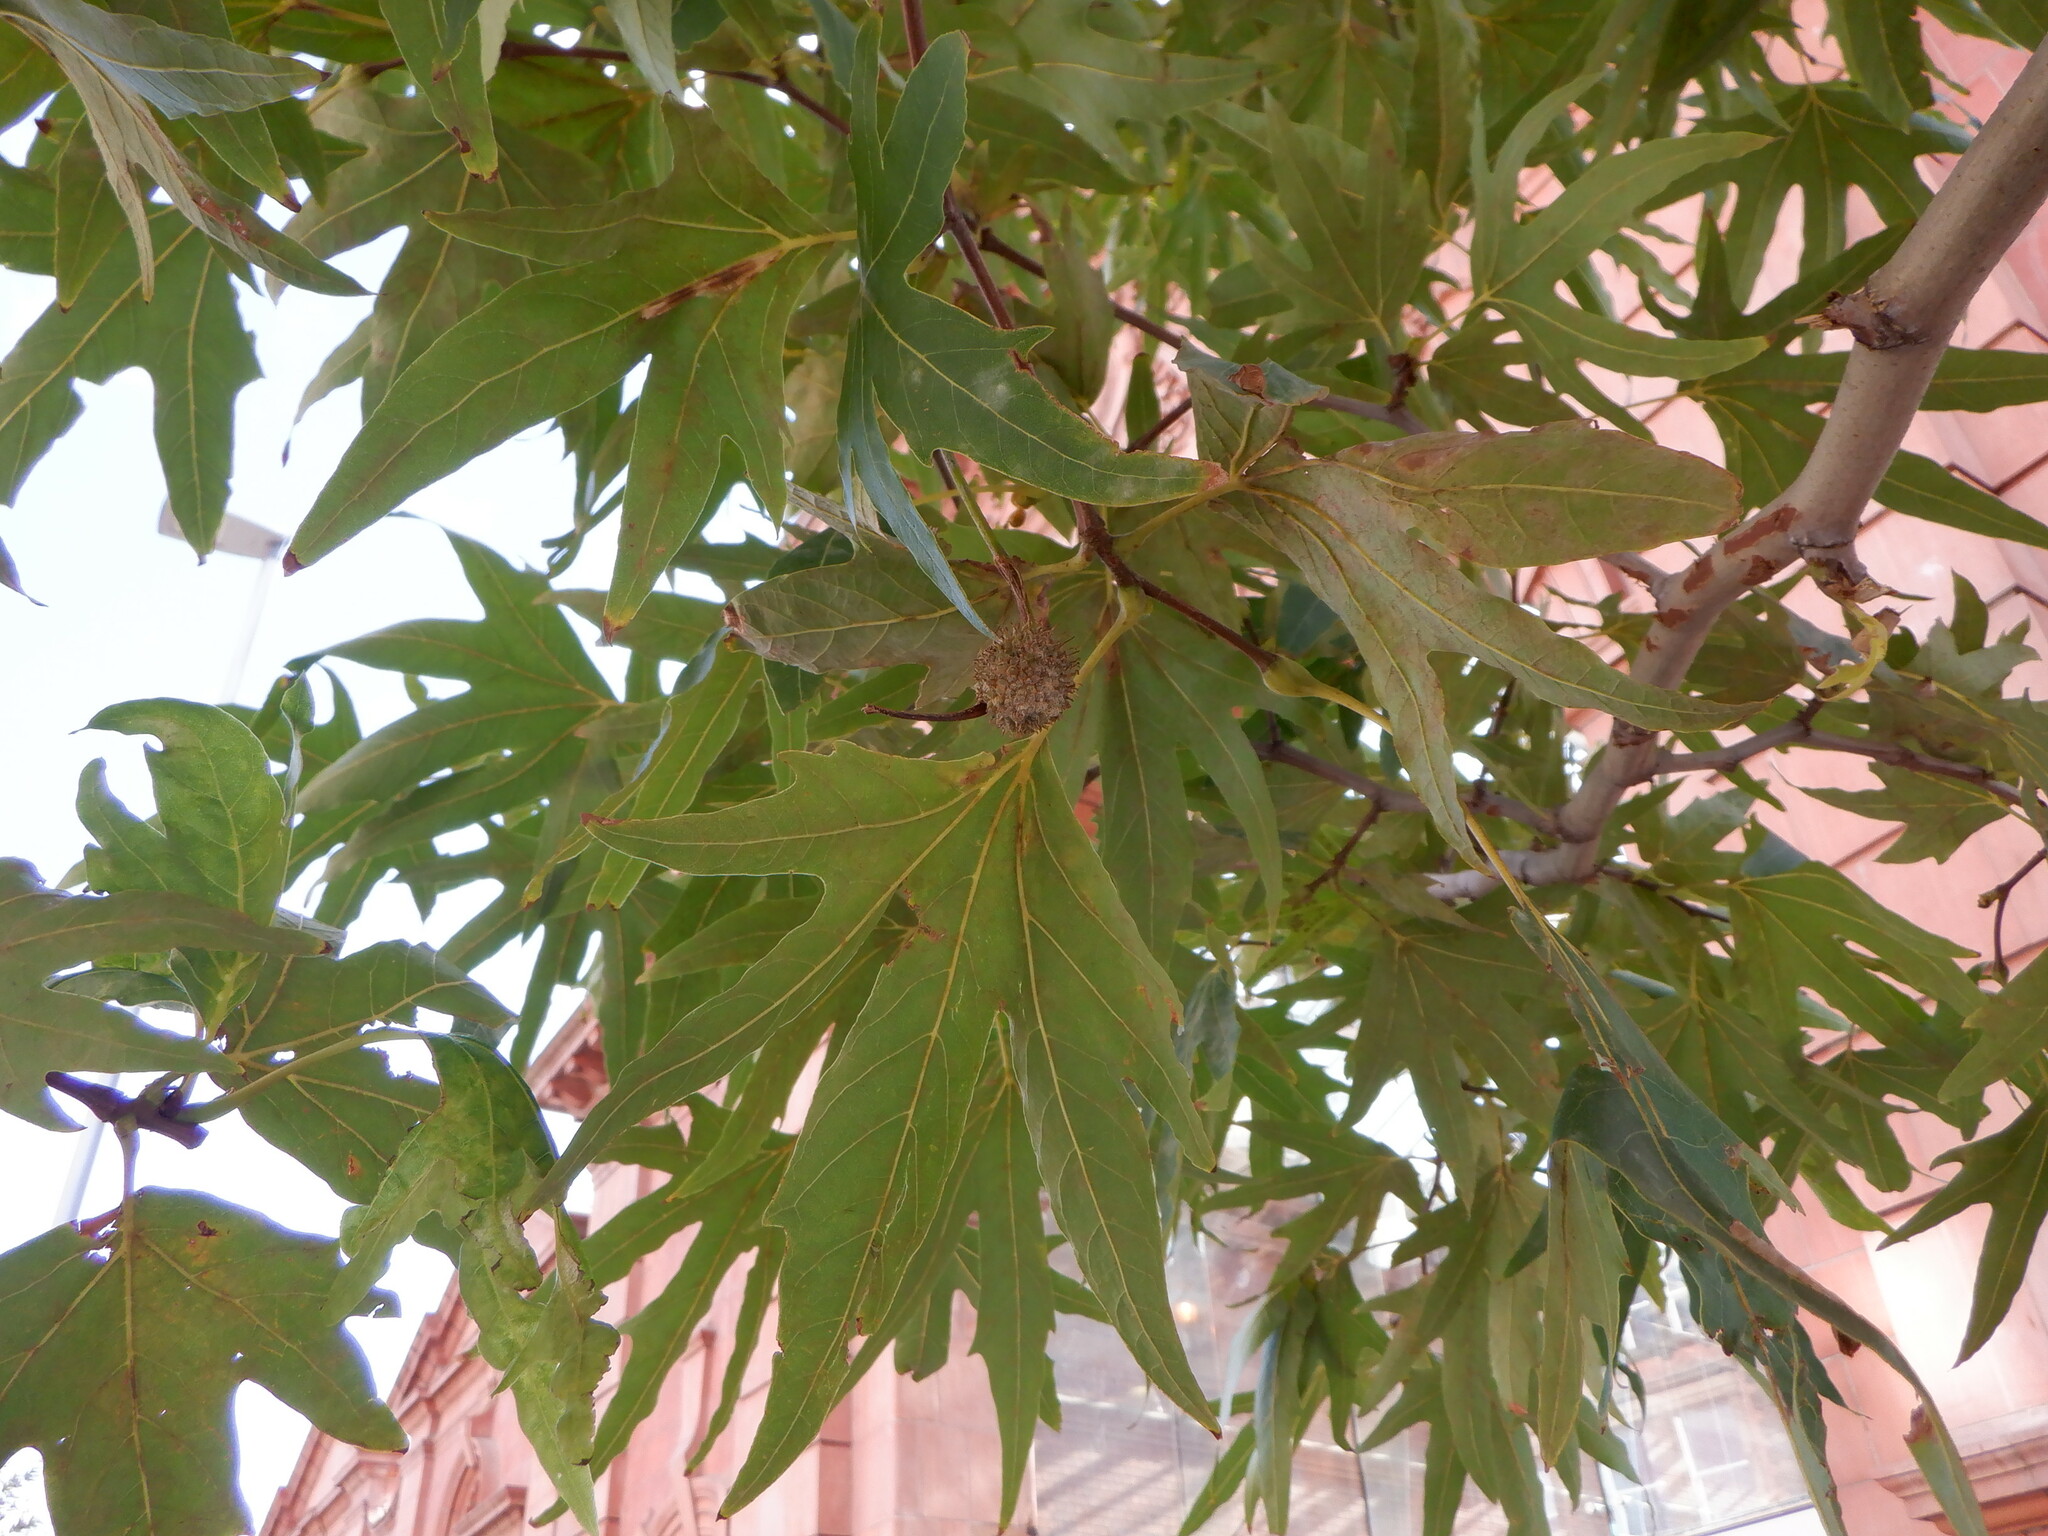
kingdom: Plantae
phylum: Tracheophyta
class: Magnoliopsida
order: Proteales
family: Platanaceae
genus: Platanus
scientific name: Platanus orientalis
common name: Oriental plane
